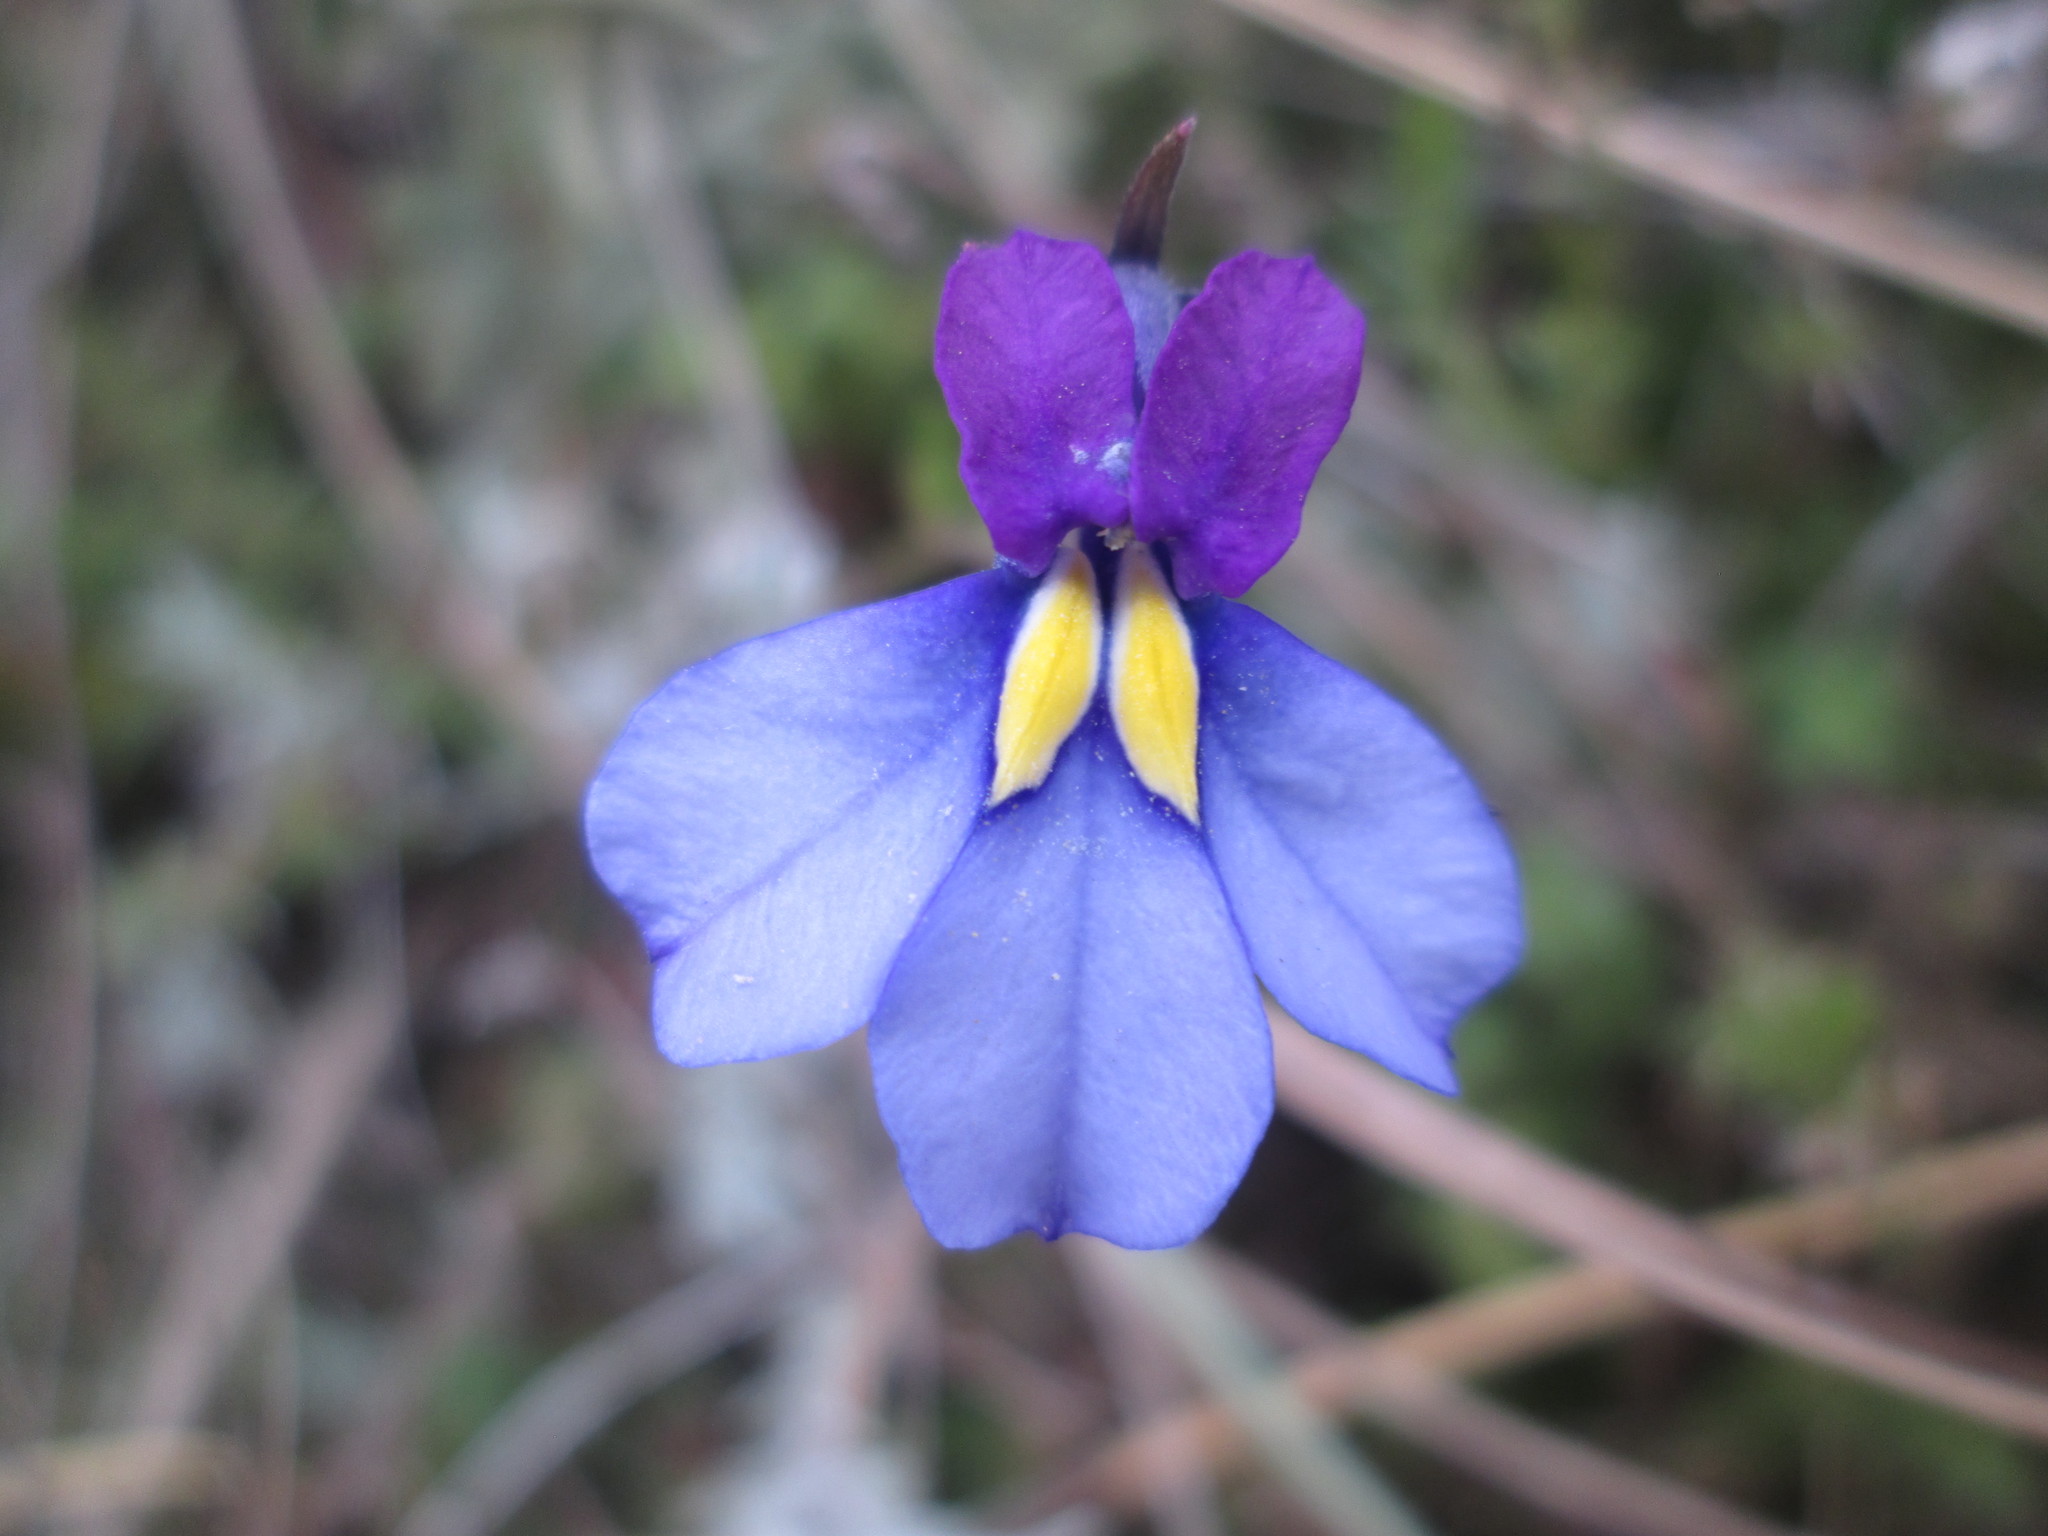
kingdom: Plantae
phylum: Tracheophyta
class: Magnoliopsida
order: Asterales
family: Campanulaceae
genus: Monopsis
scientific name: Monopsis decipiens
